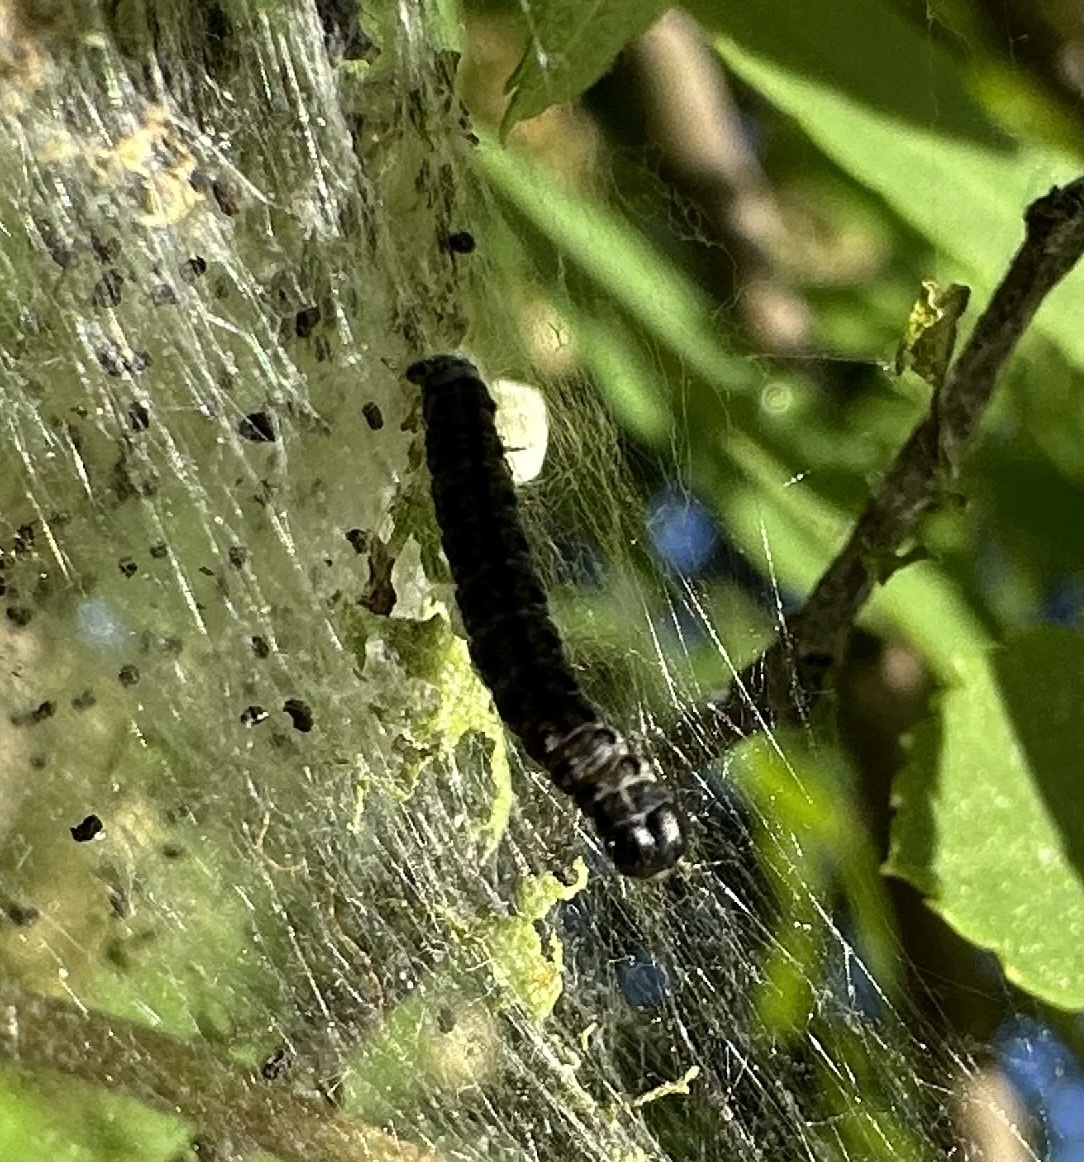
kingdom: Animalia
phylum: Arthropoda
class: Insecta
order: Lepidoptera
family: Yponomeutidae
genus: Yponomeuta
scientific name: Yponomeuta padella
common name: Orchard ermine
